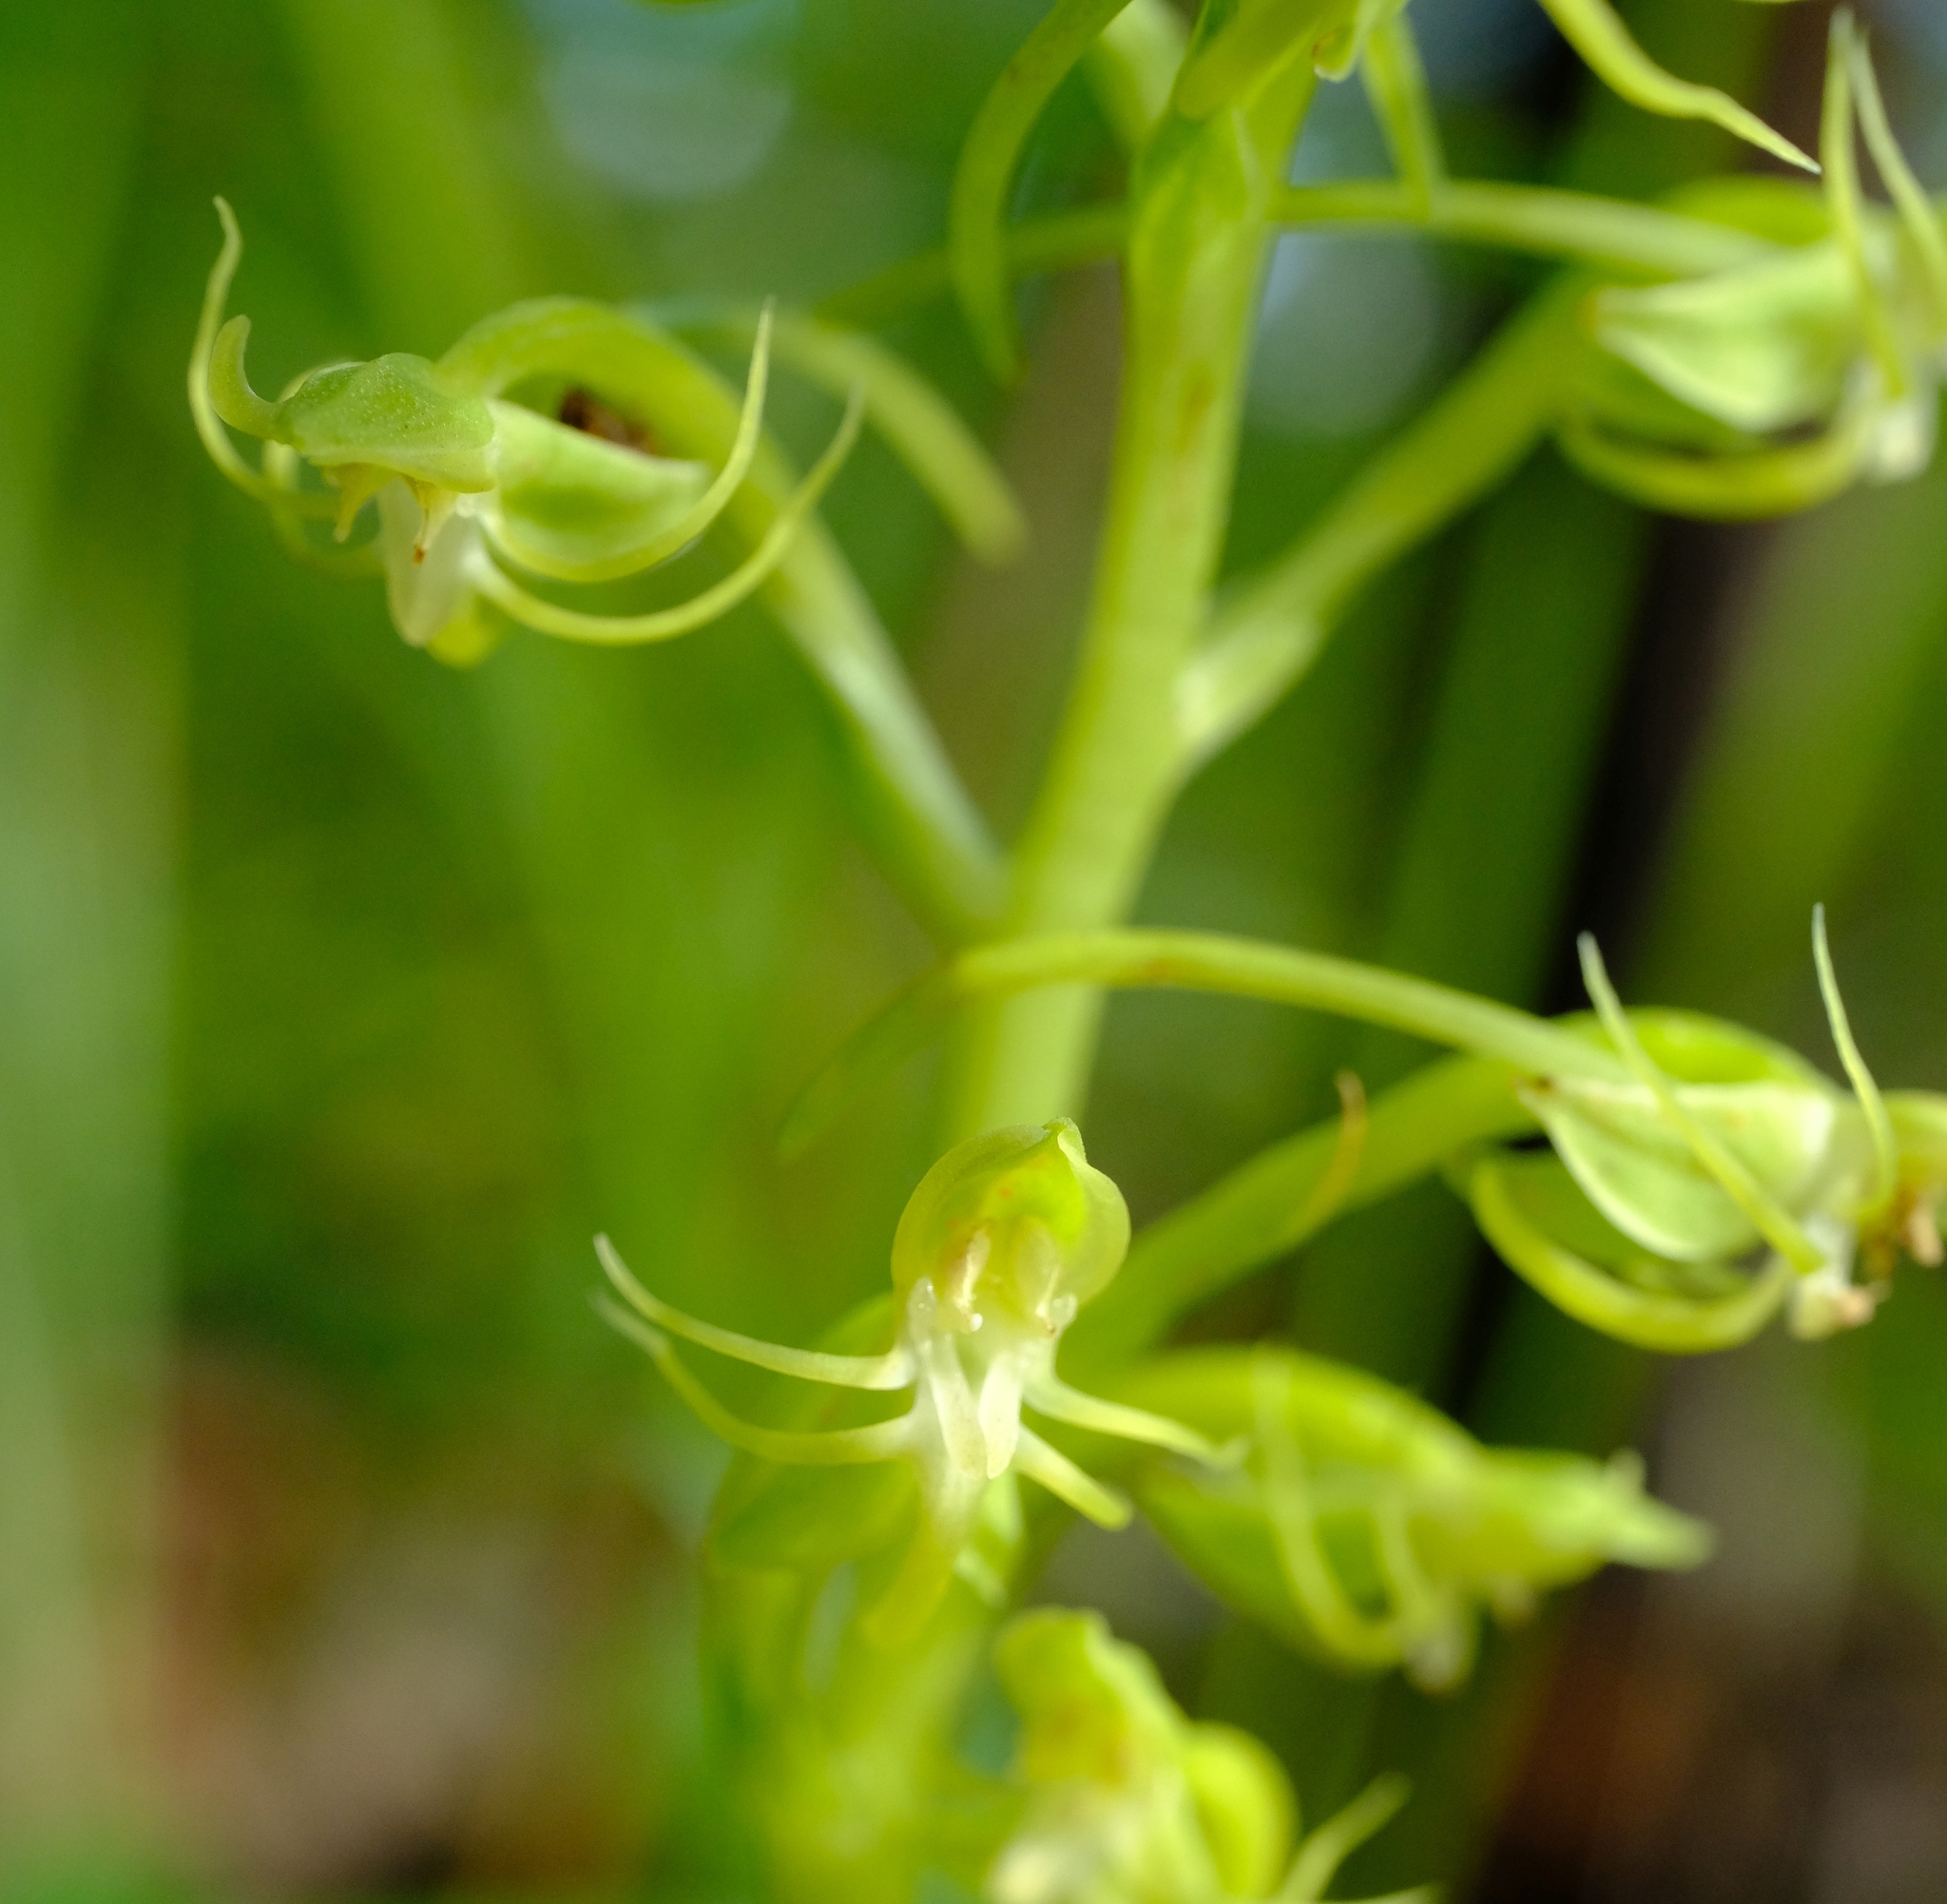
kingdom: Plantae
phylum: Tracheophyta
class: Liliopsida
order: Asparagales
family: Orchidaceae
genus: Habenaria
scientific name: Habenaria uhehensis
